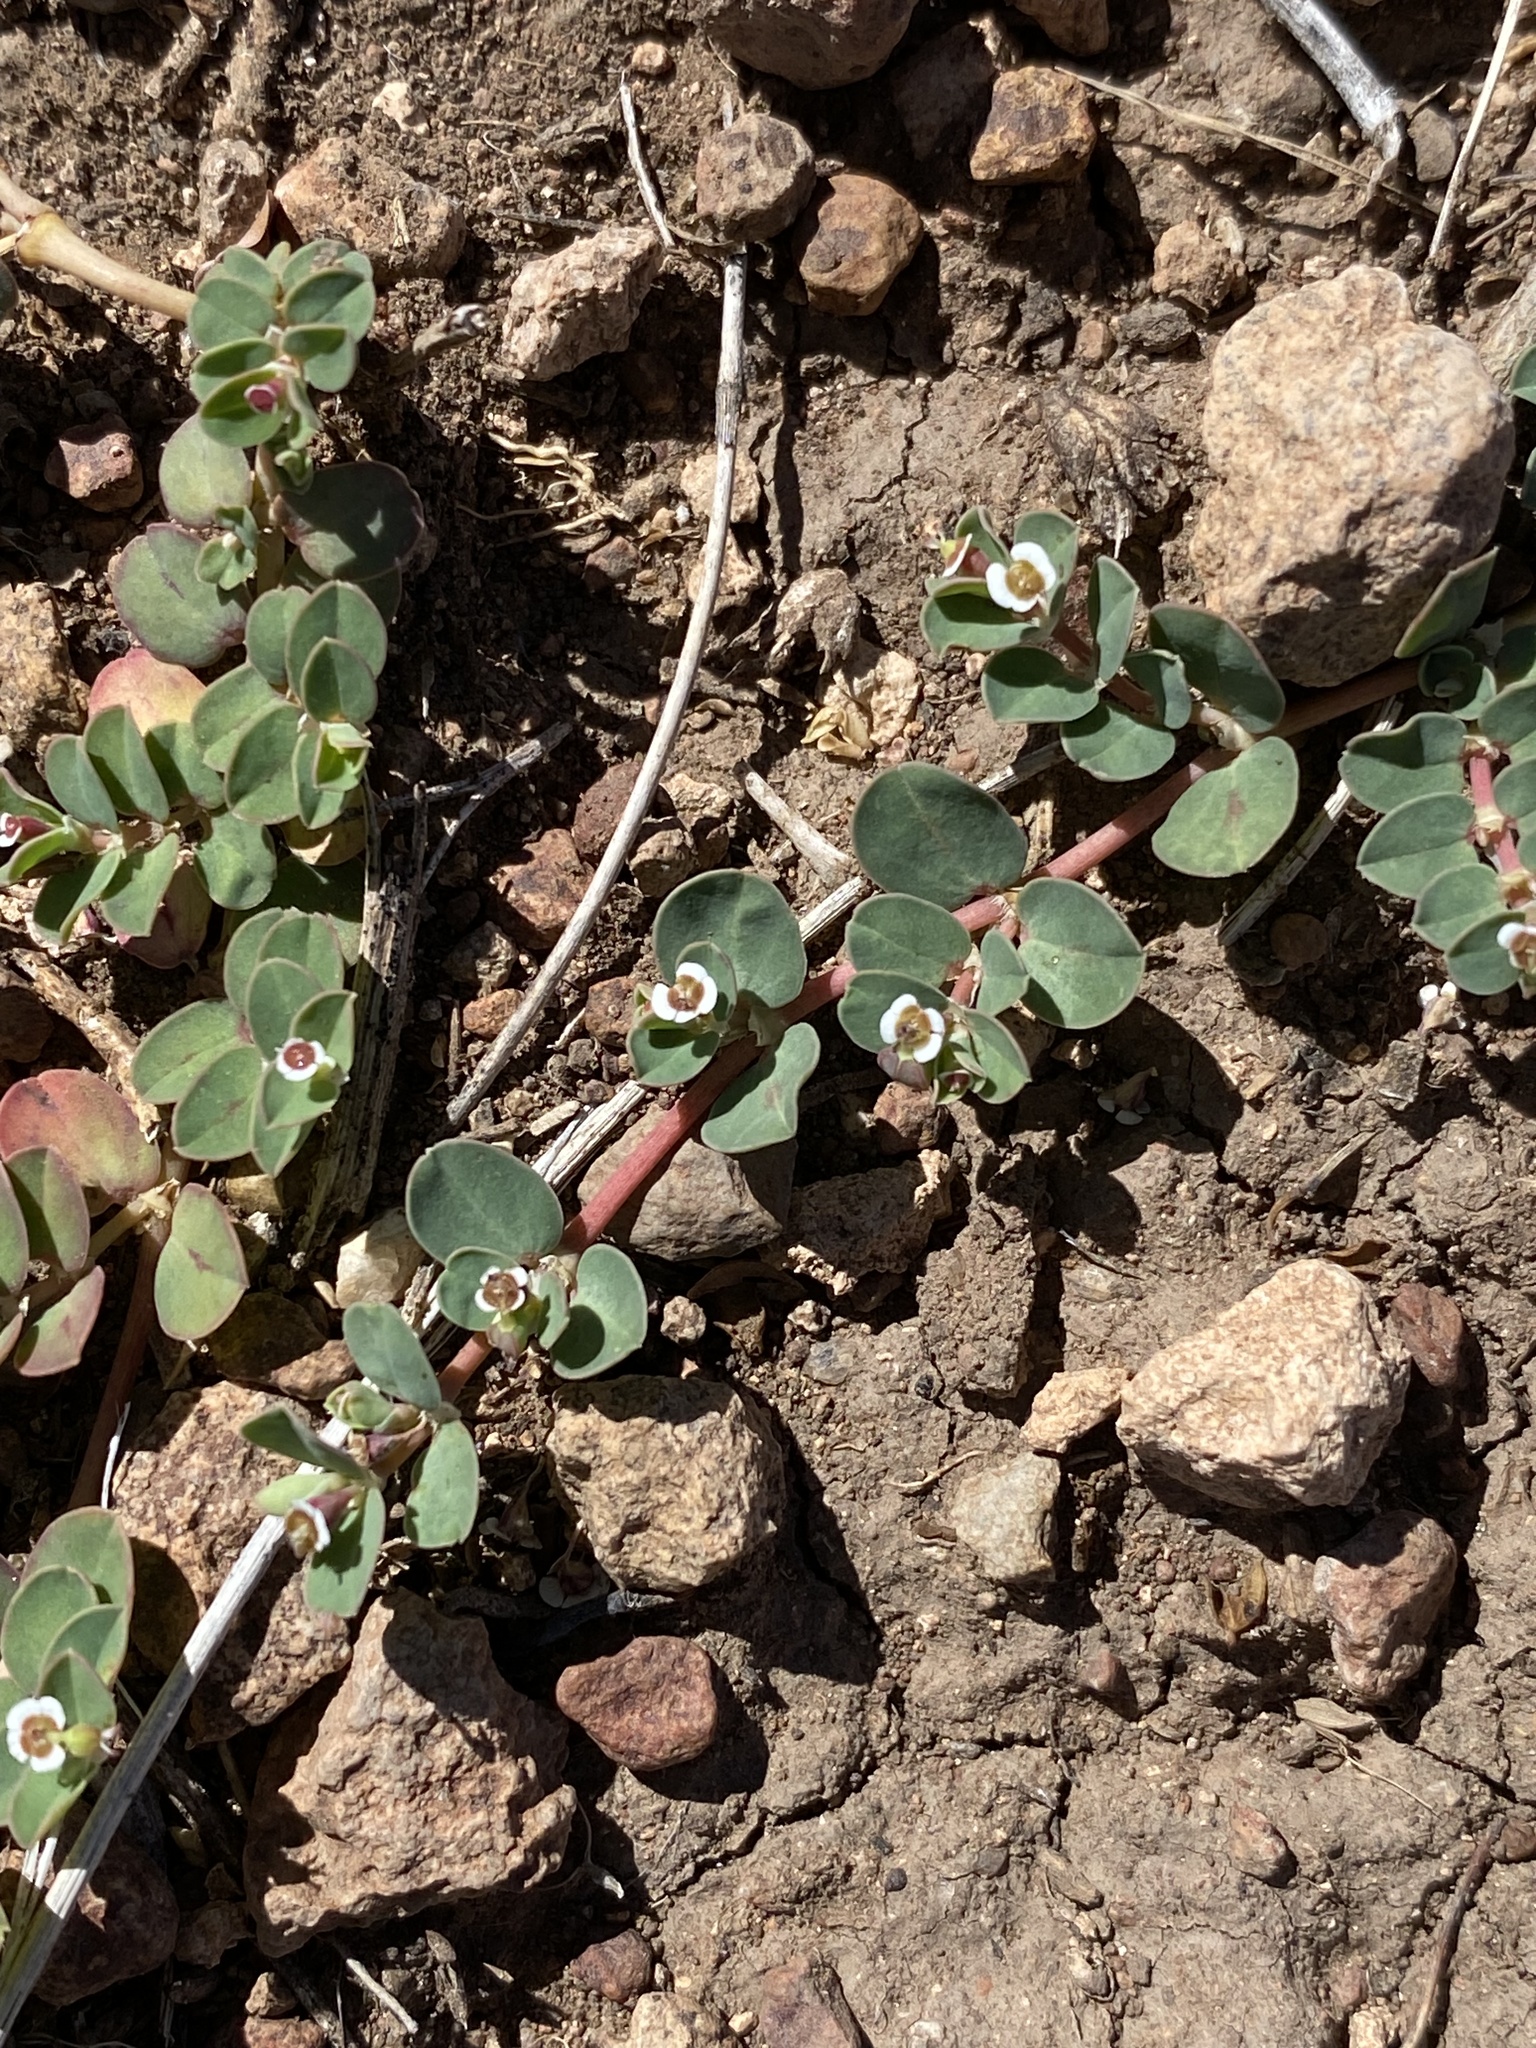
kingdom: Plantae
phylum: Tracheophyta
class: Magnoliopsida
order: Malpighiales
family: Euphorbiaceae
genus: Euphorbia
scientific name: Euphorbia albomarginata
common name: Whitemargin sandmat
